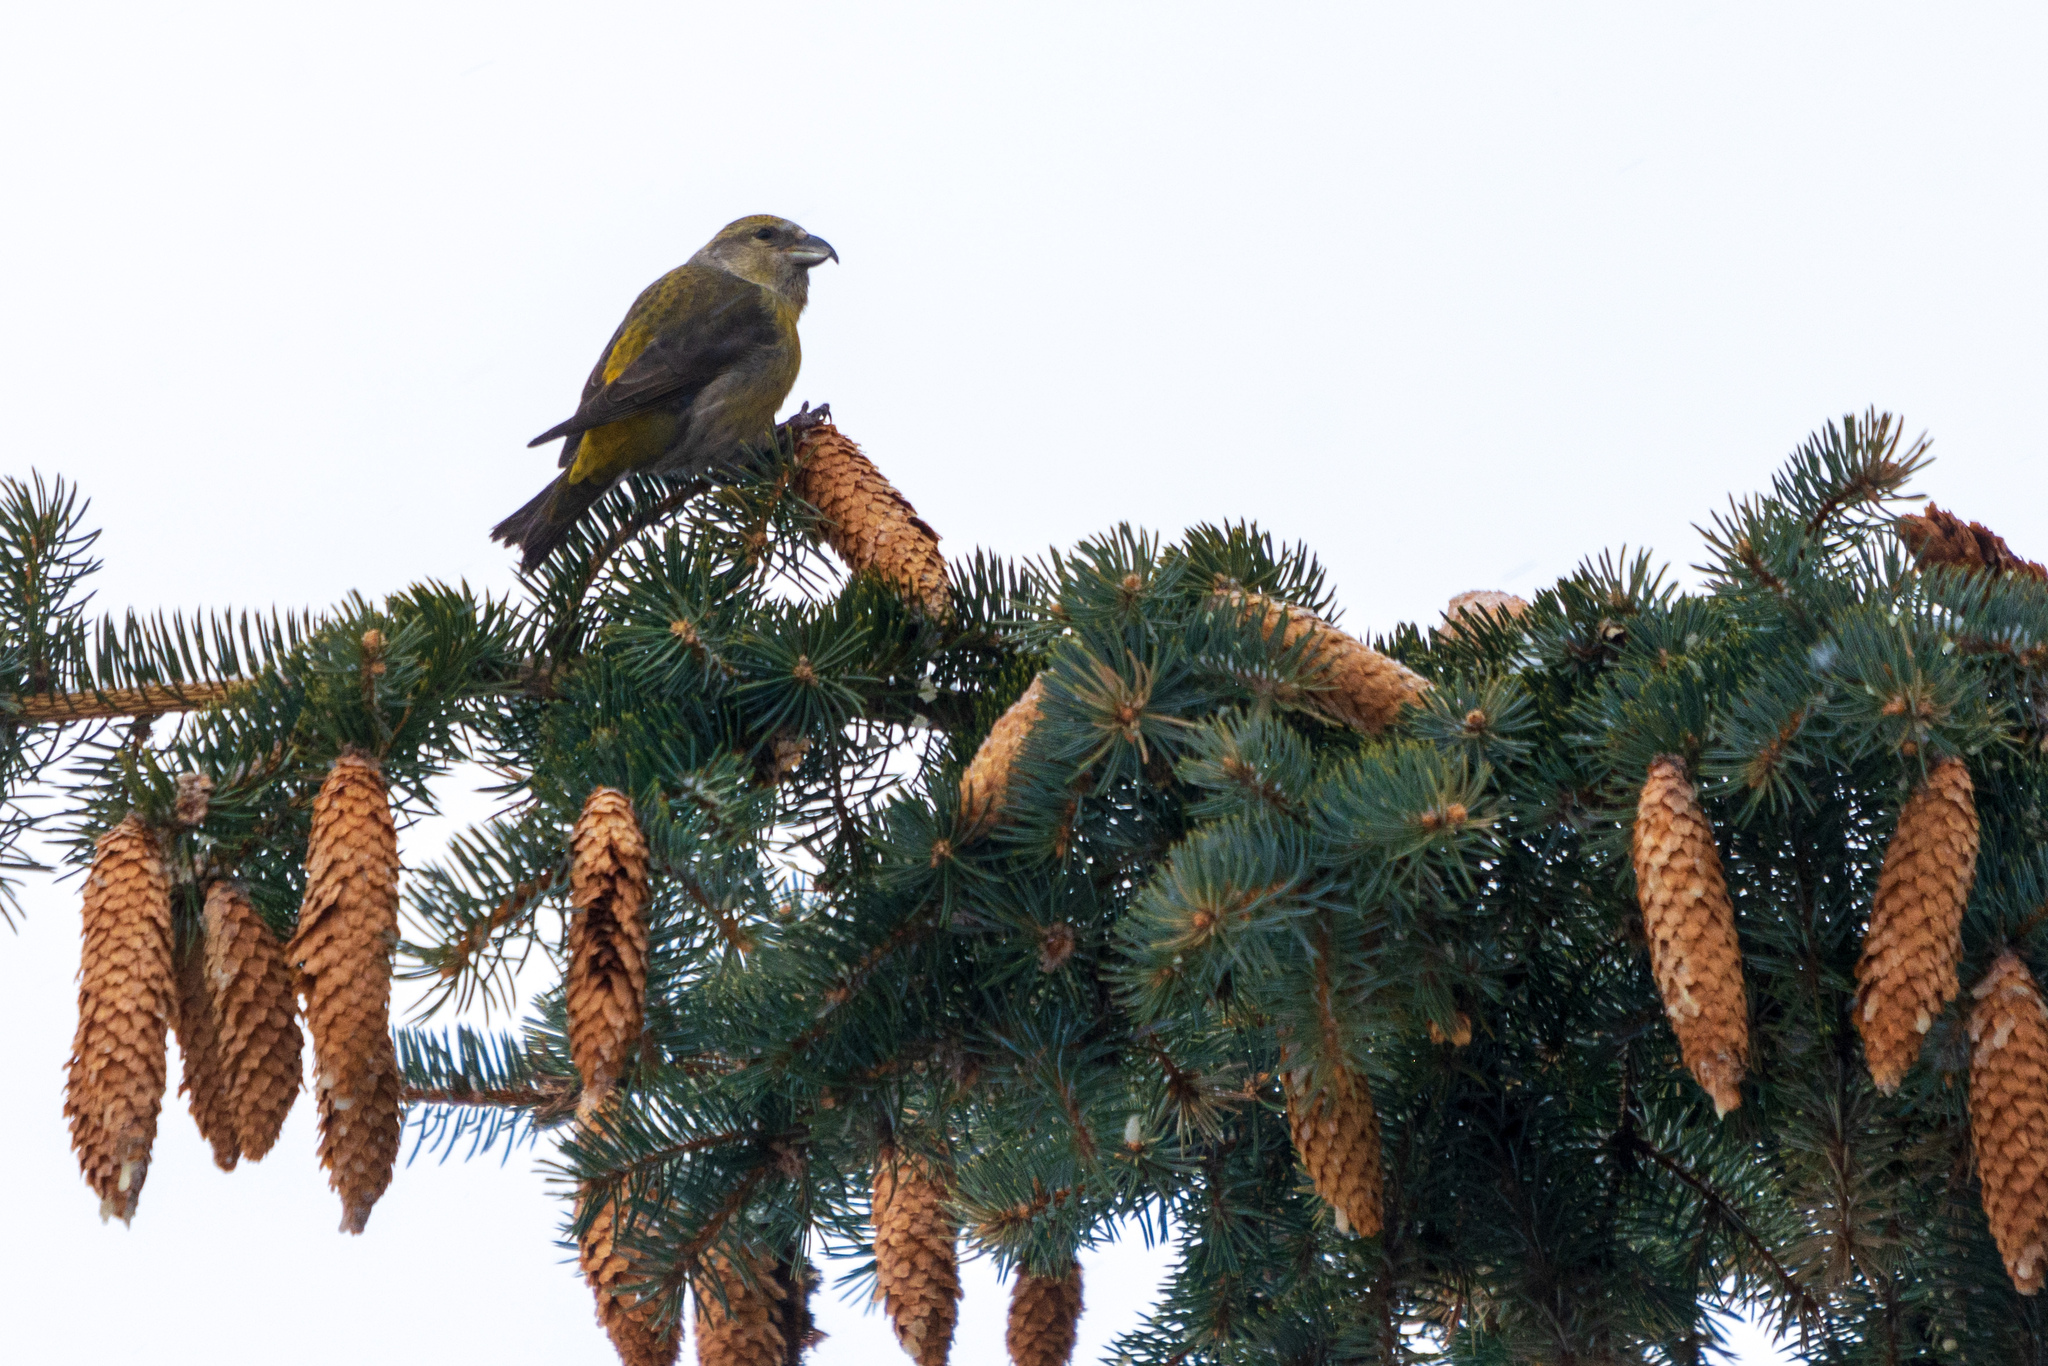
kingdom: Animalia
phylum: Chordata
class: Aves
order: Passeriformes
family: Fringillidae
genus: Loxia
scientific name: Loxia curvirostra
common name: Red crossbill
